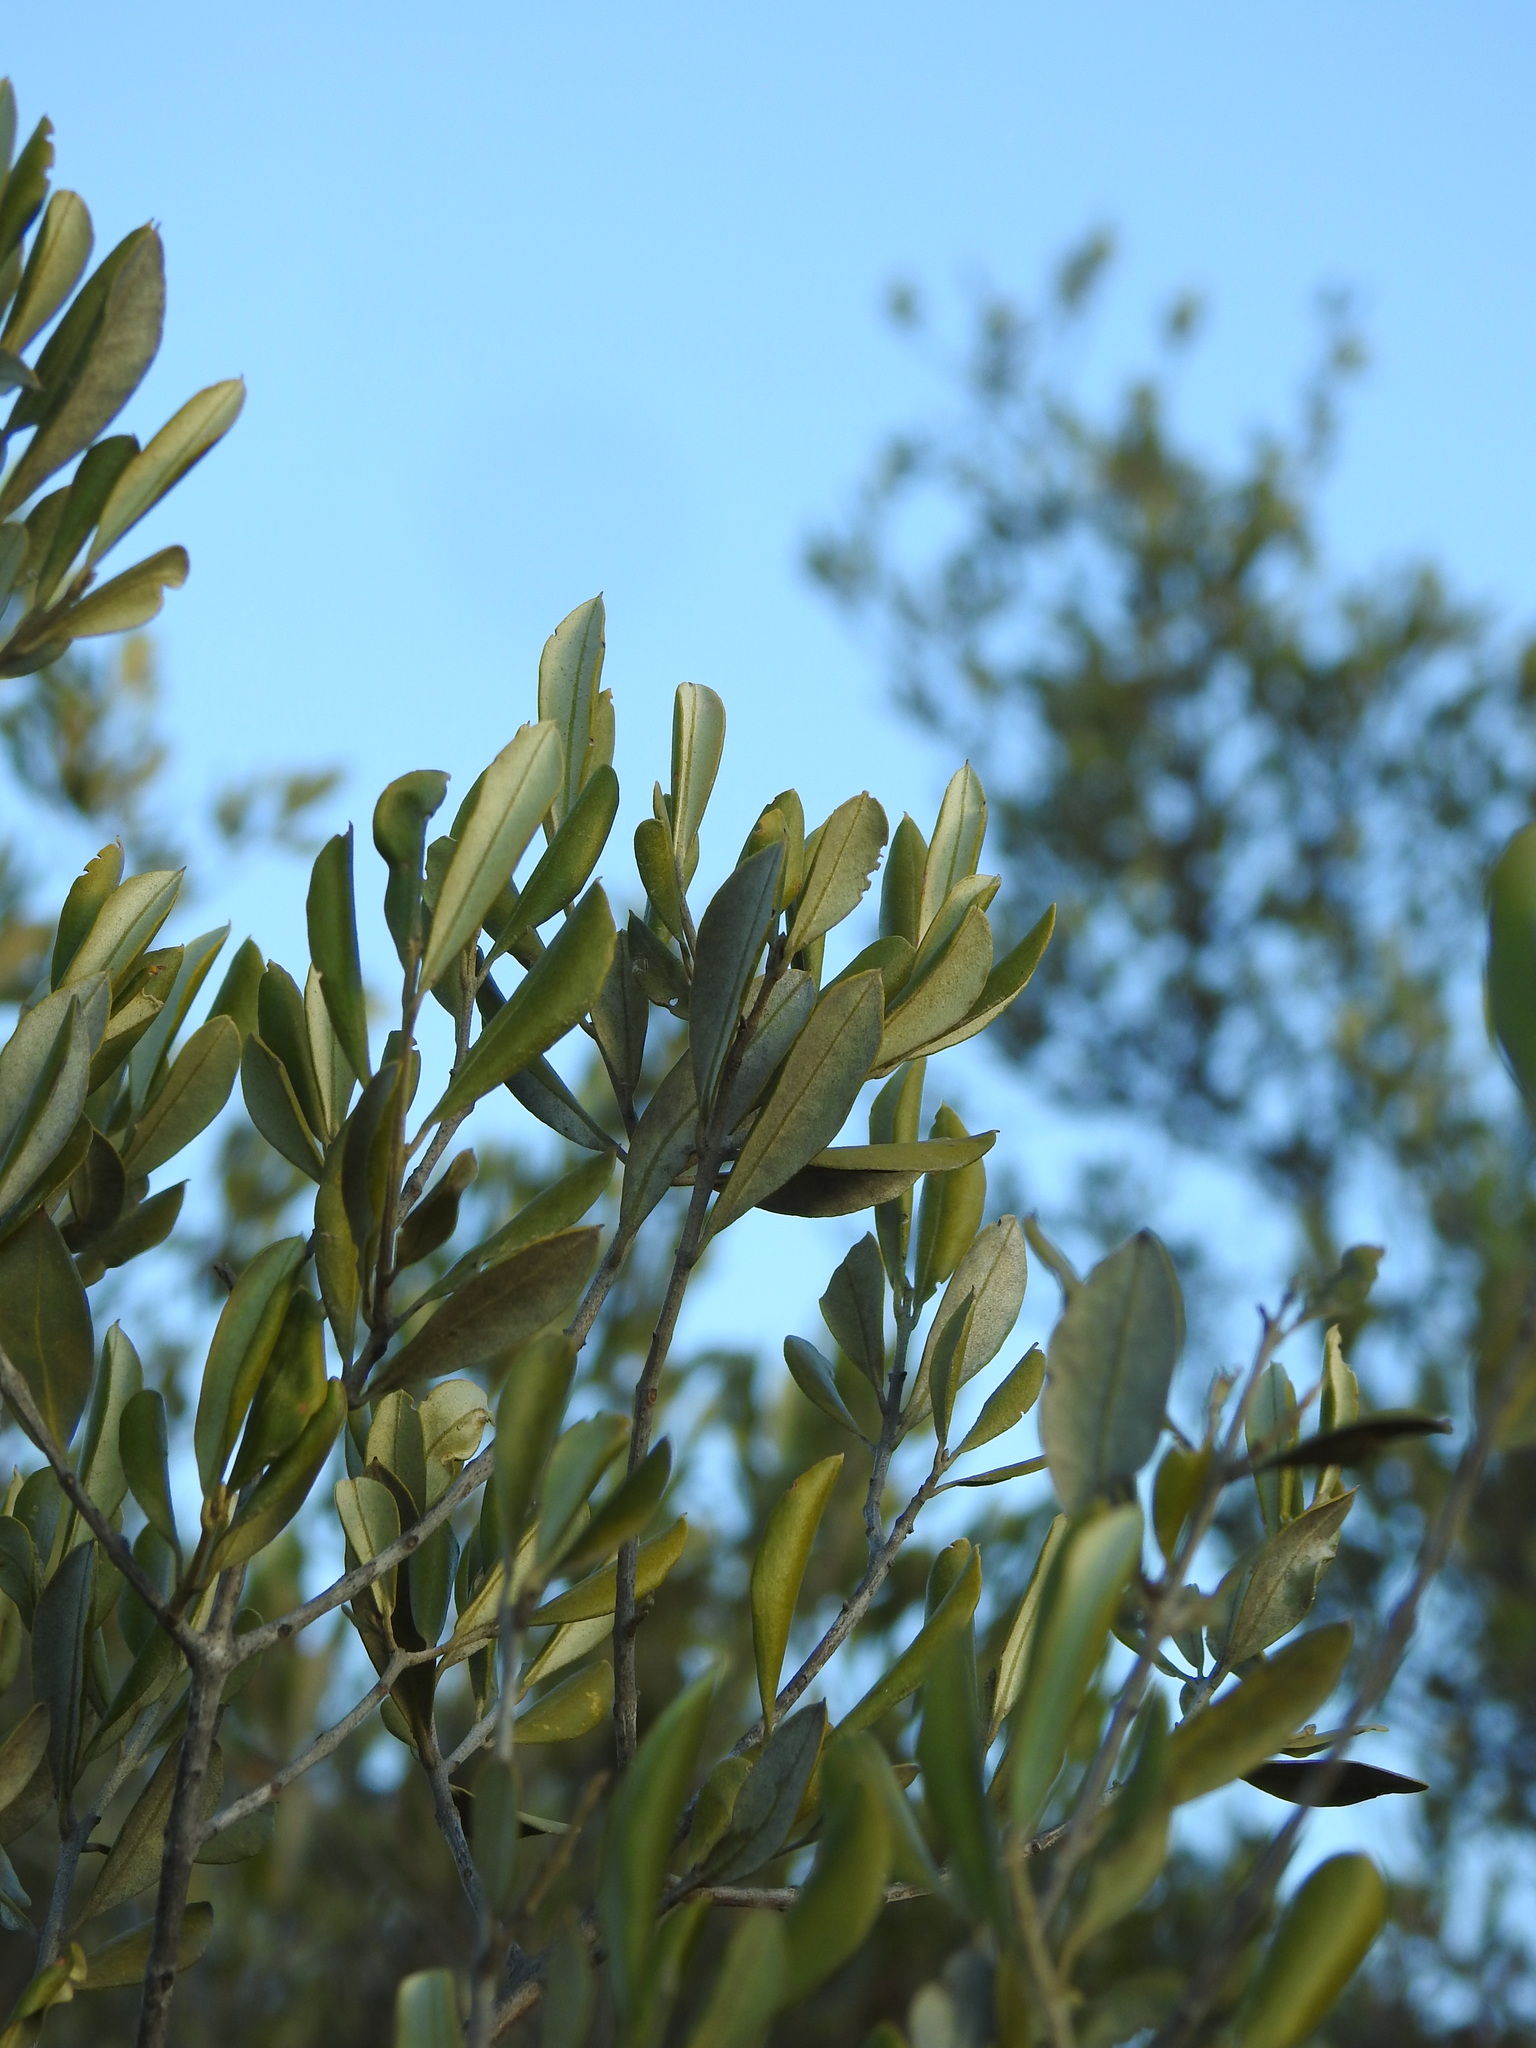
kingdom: Plantae
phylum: Tracheophyta
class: Magnoliopsida
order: Lamiales
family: Oleaceae
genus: Olea
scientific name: Olea europaea
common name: Olive
